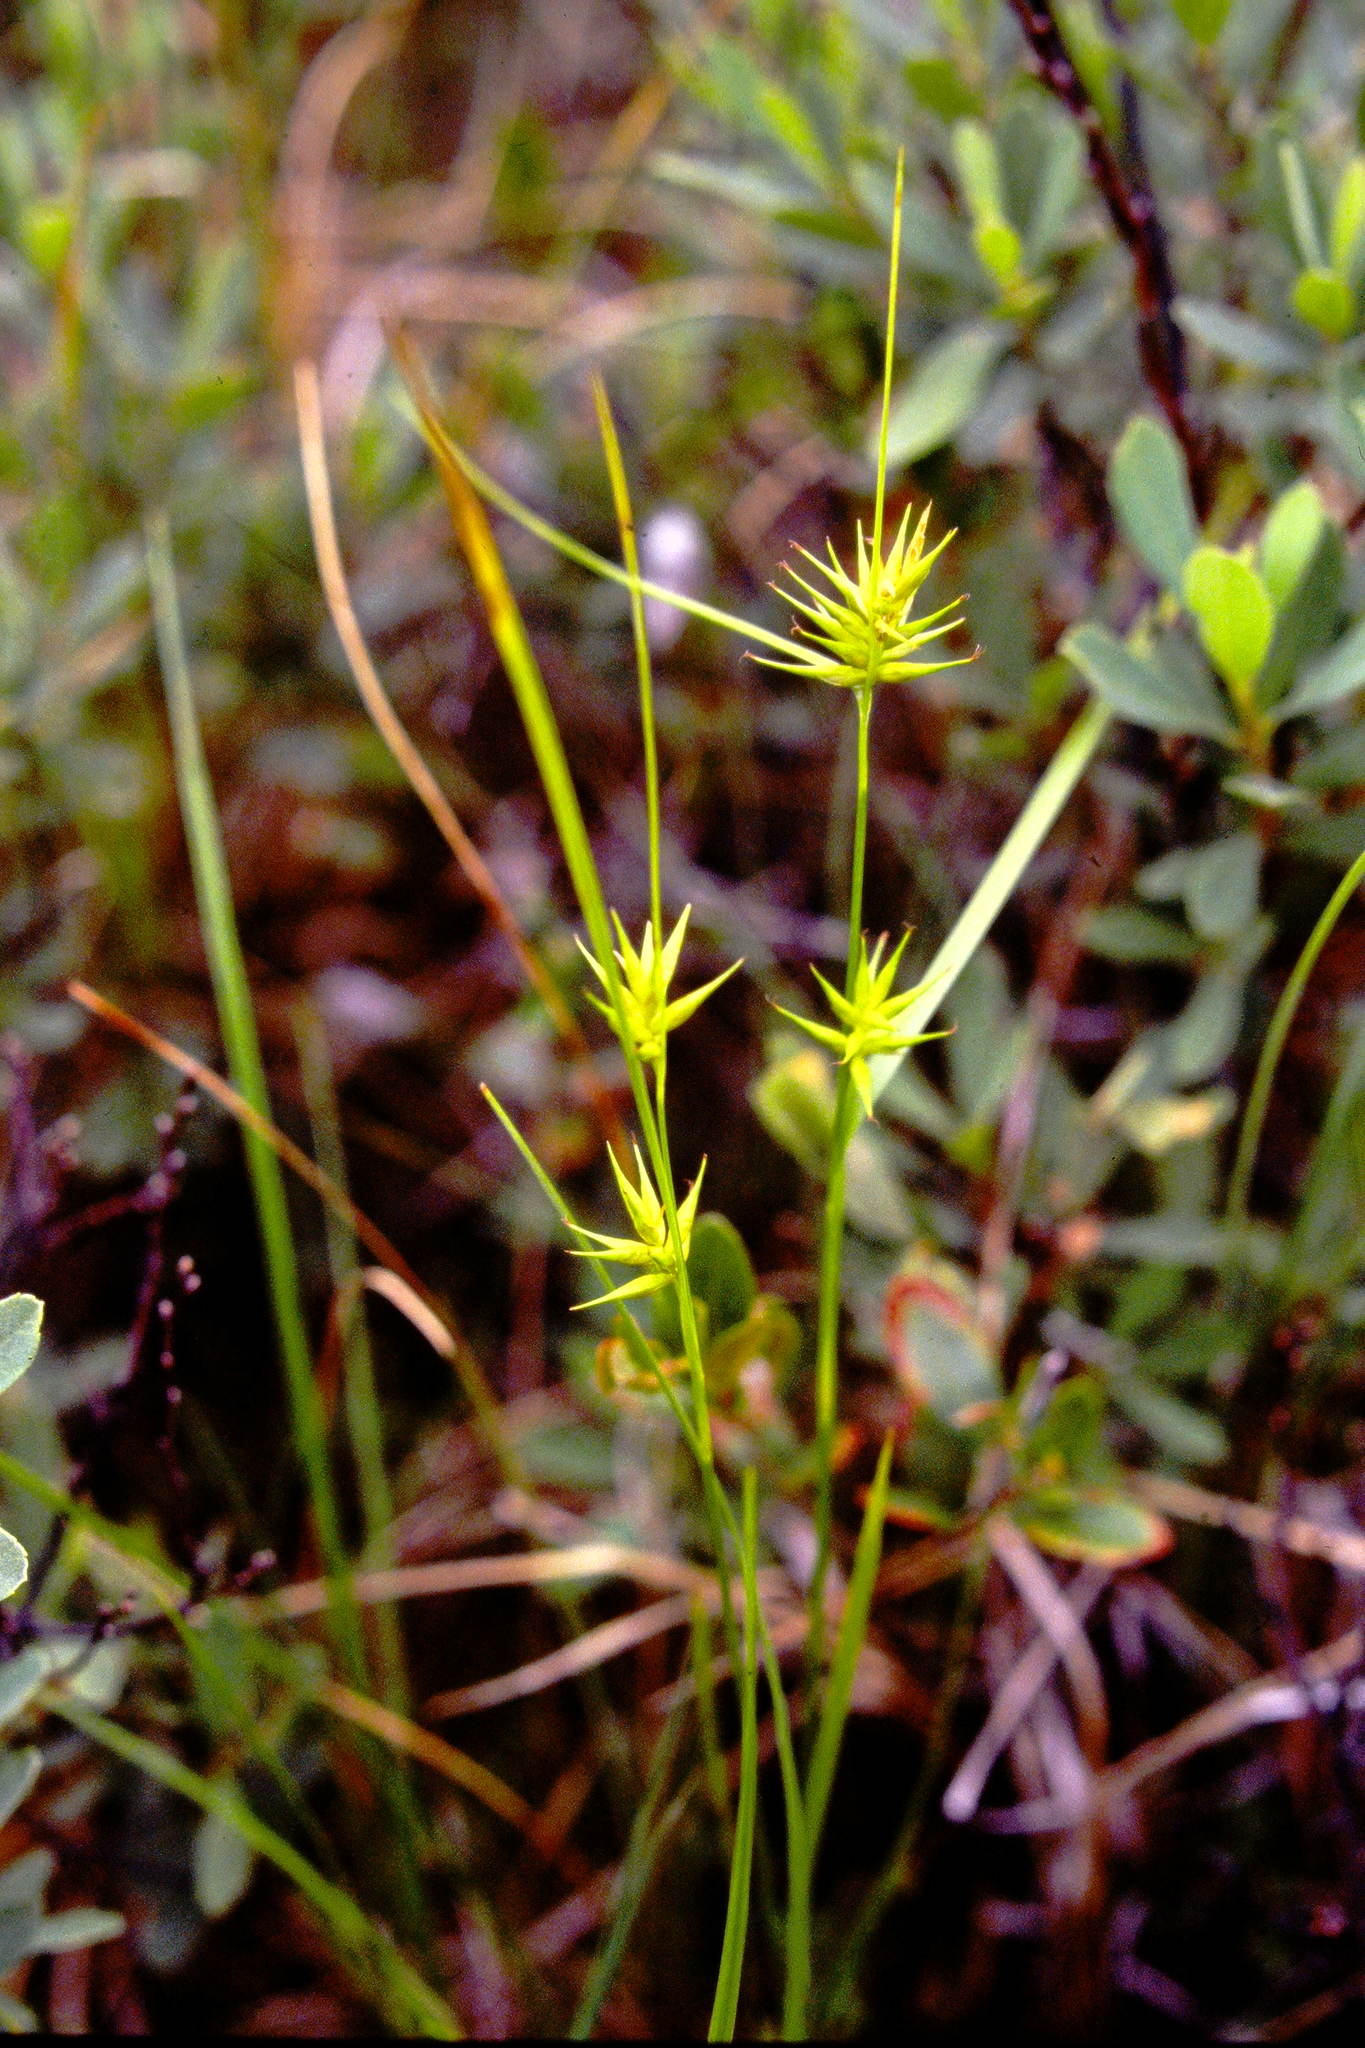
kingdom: Plantae
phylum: Tracheophyta
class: Liliopsida
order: Poales
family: Cyperaceae
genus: Carex
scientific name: Carex michauxiana
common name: Michaux's sedge
